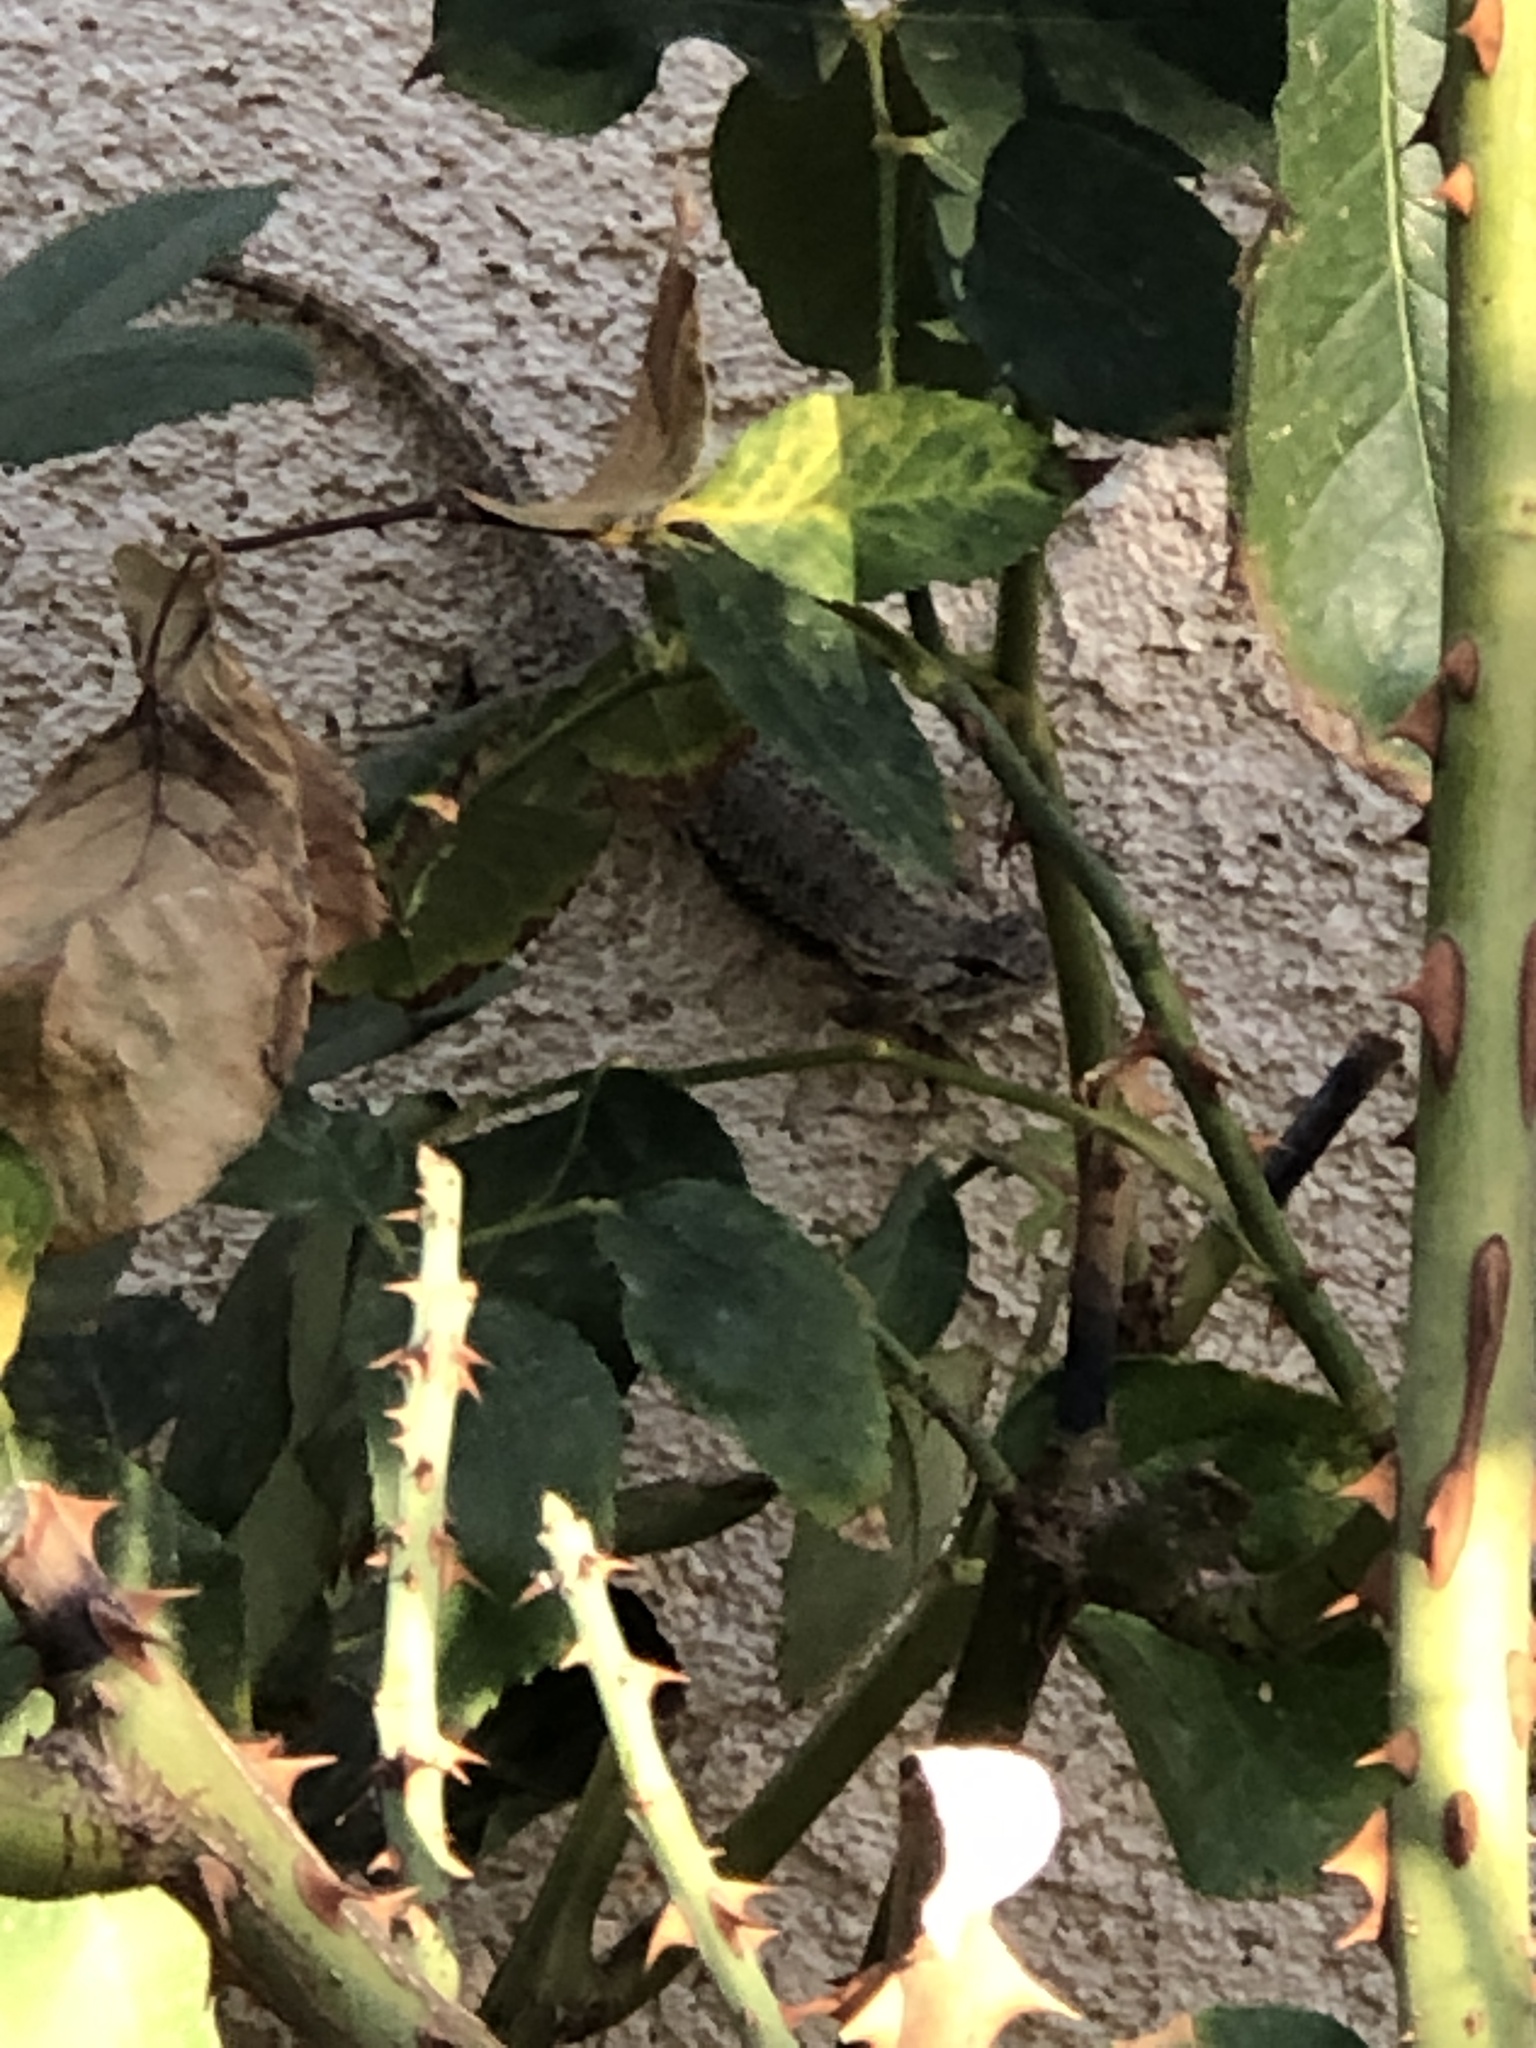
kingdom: Animalia
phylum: Chordata
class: Squamata
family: Phrynosomatidae
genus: Sceloporus
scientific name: Sceloporus occidentalis
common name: Western fence lizard
